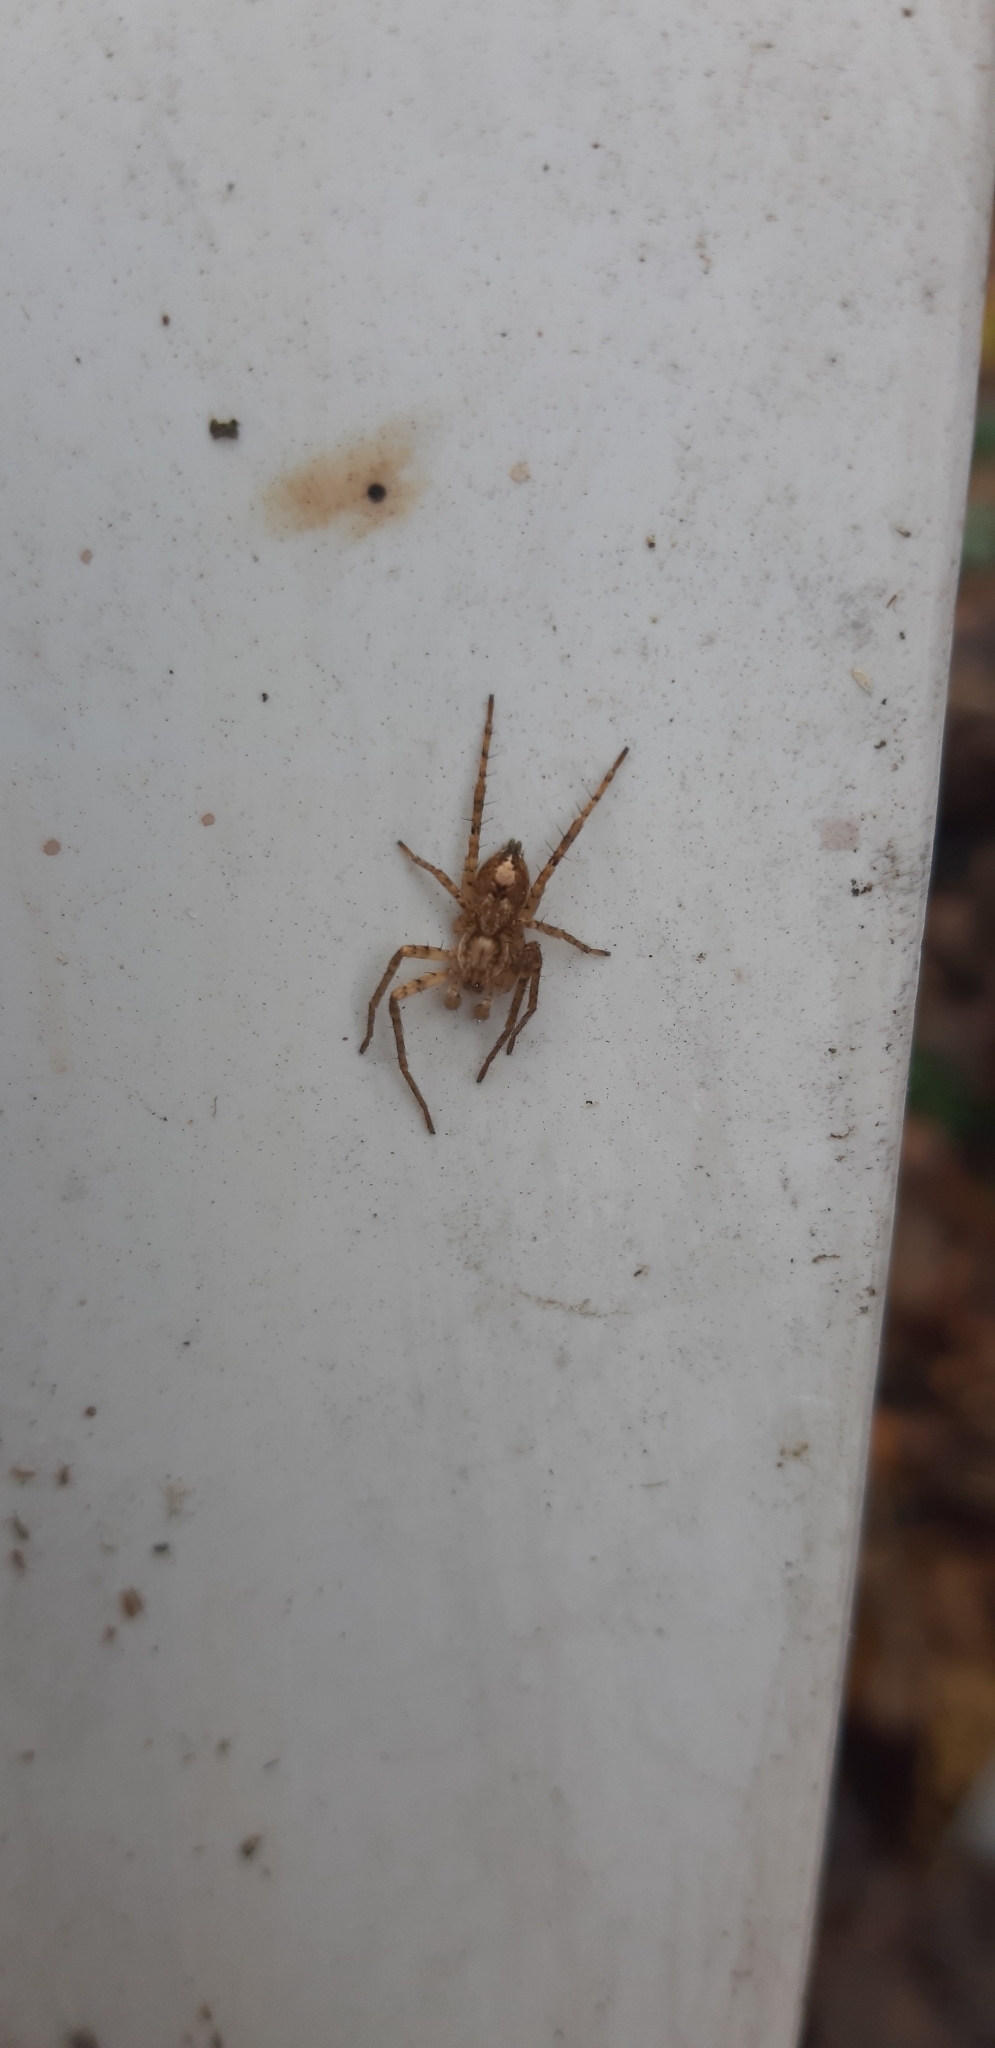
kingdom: Animalia
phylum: Arthropoda
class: Arachnida
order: Araneae
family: Anyphaenidae
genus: Anyphaena
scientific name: Anyphaena accentuata
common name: Buzzing spider
